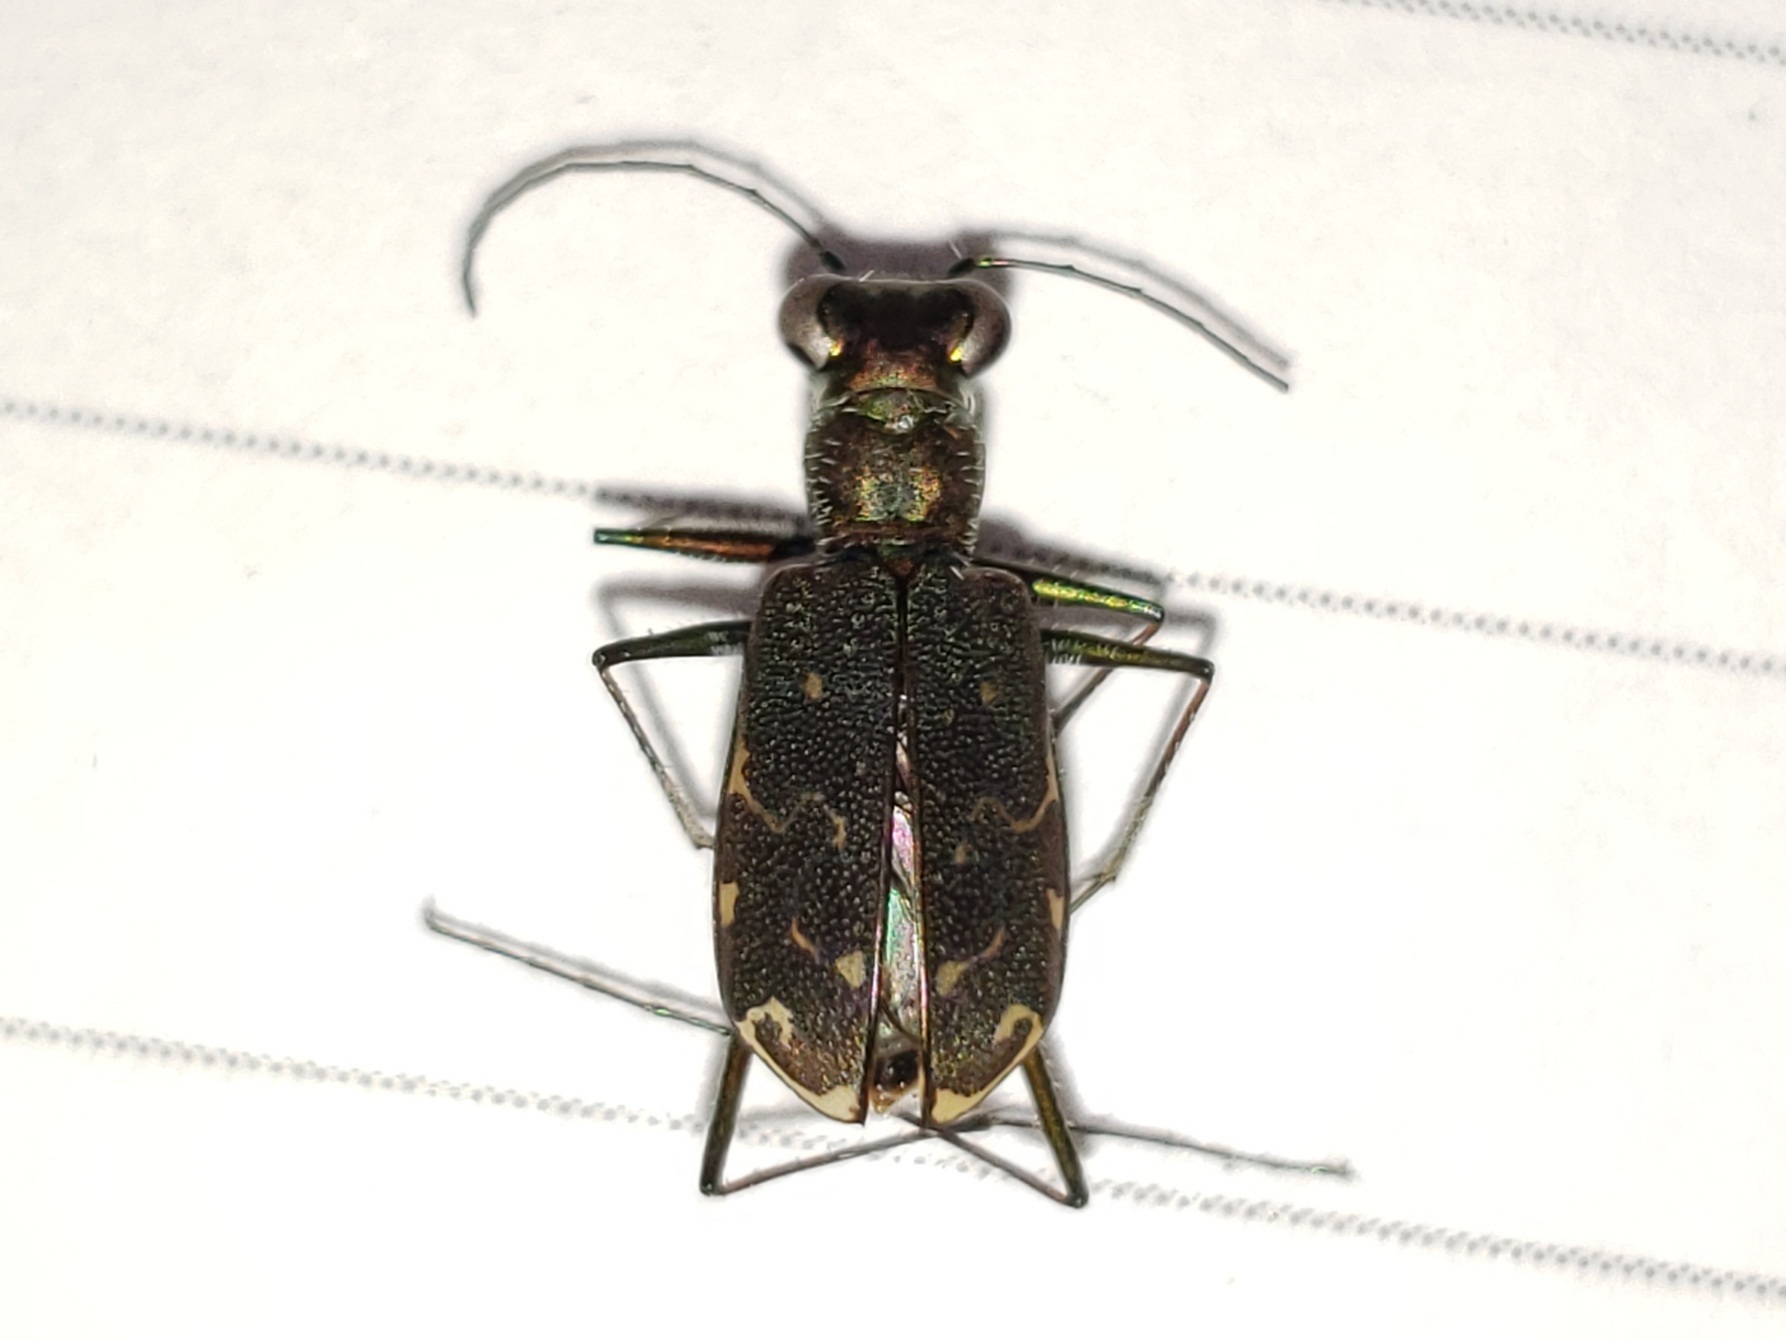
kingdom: Animalia
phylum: Arthropoda
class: Insecta
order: Coleoptera
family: Carabidae
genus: Cicindela
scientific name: Cicindela trifasciata
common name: Mudflat tiger beetle
